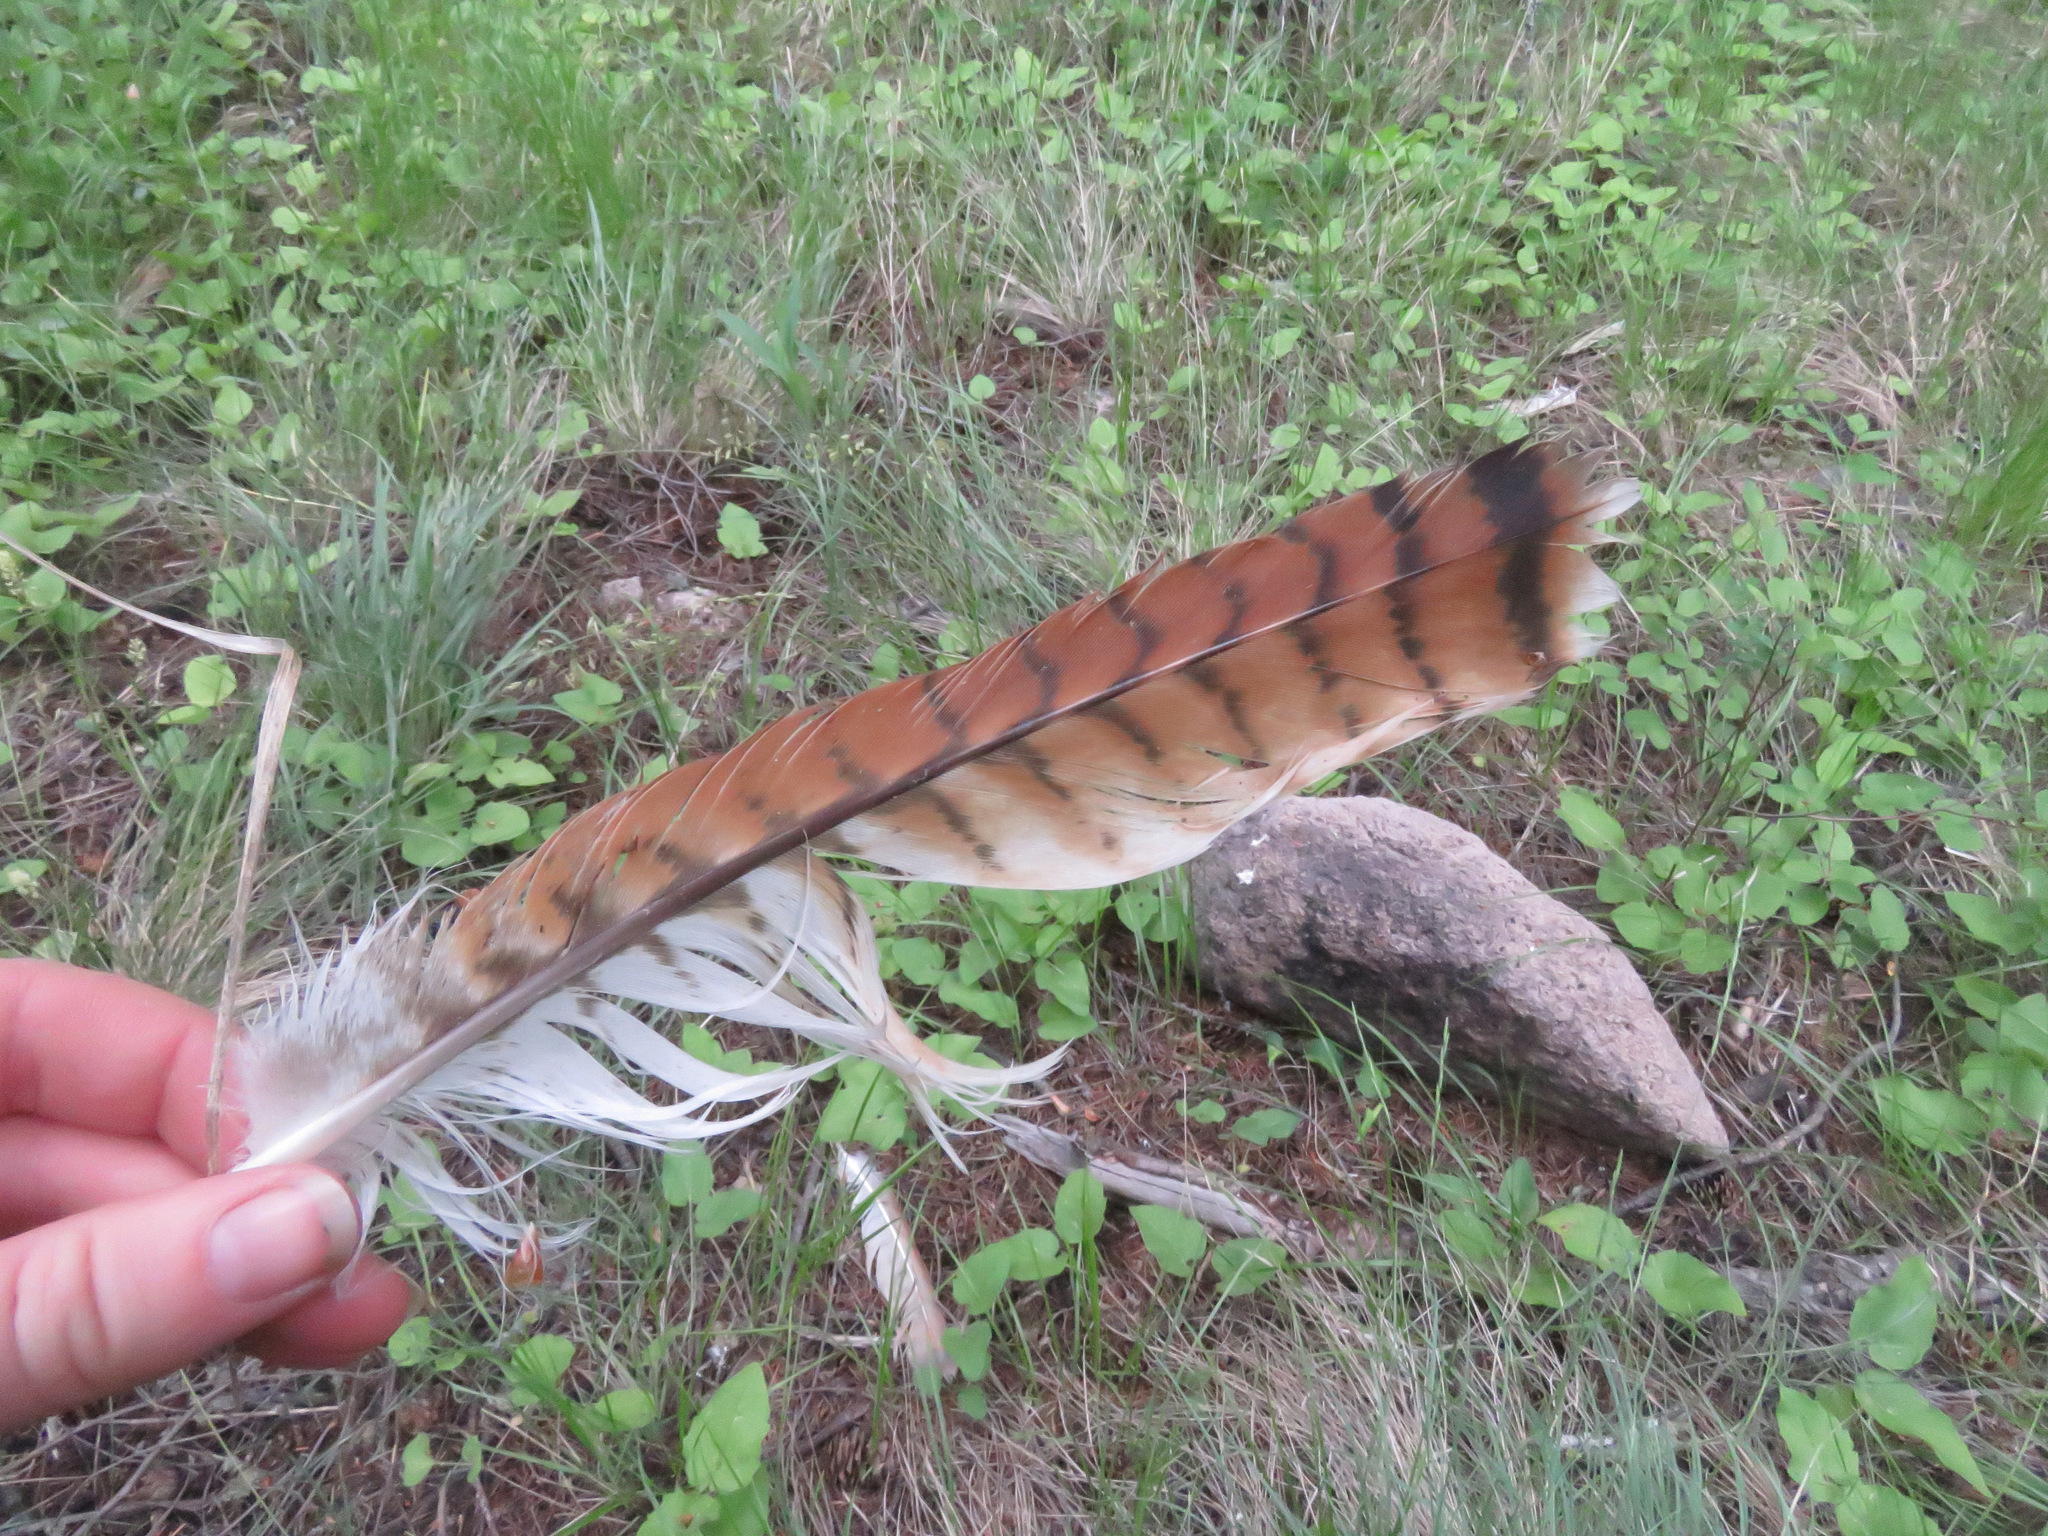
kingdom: Animalia
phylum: Chordata
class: Aves
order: Accipitriformes
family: Accipitridae
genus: Buteo
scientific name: Buteo jamaicensis
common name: Red-tailed hawk
